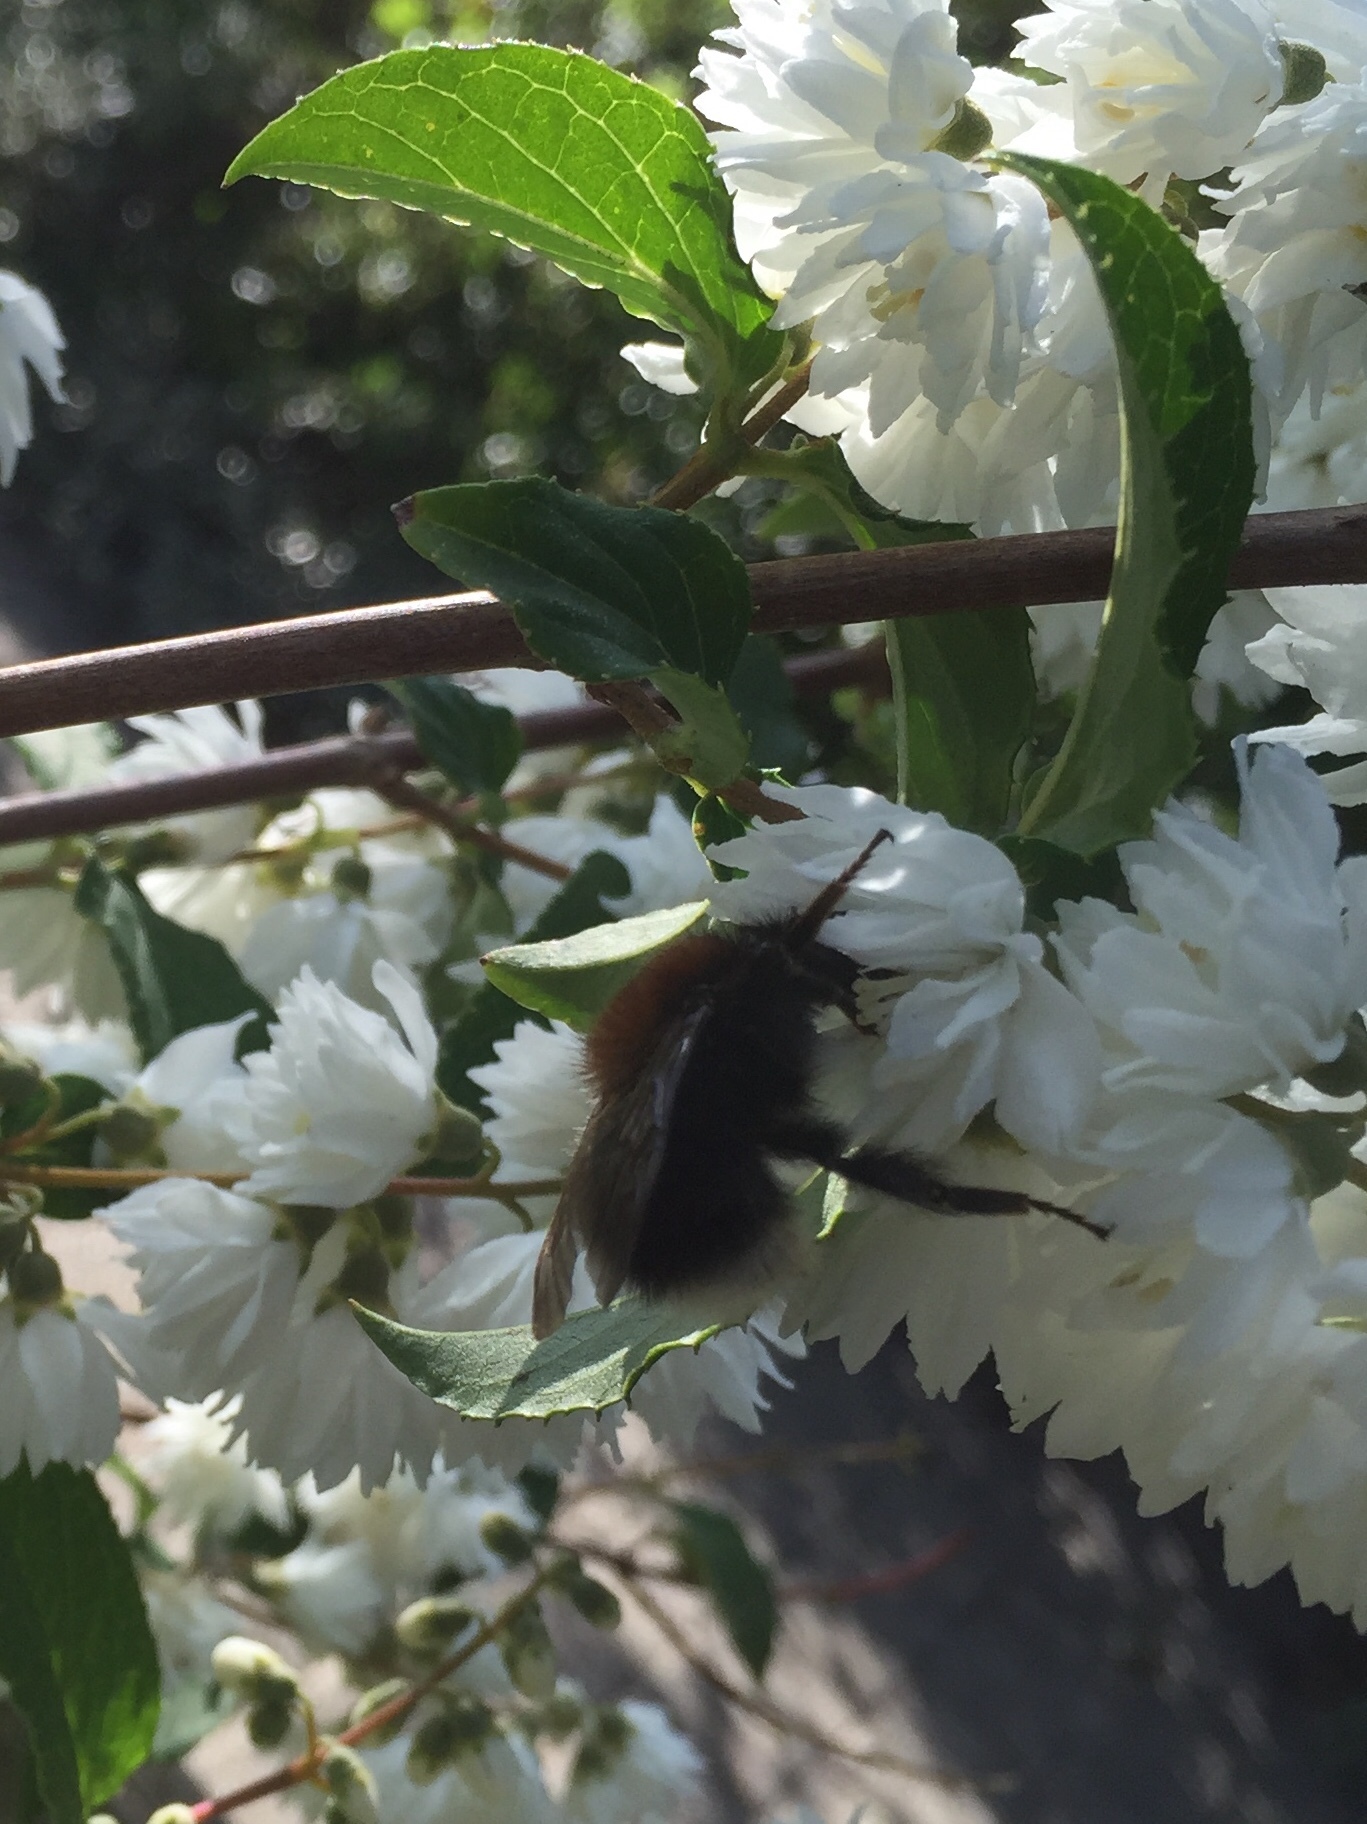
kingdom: Animalia
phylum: Arthropoda
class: Insecta
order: Hymenoptera
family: Apidae
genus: Bombus
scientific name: Bombus hypnorum
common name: New garden bumblebee
